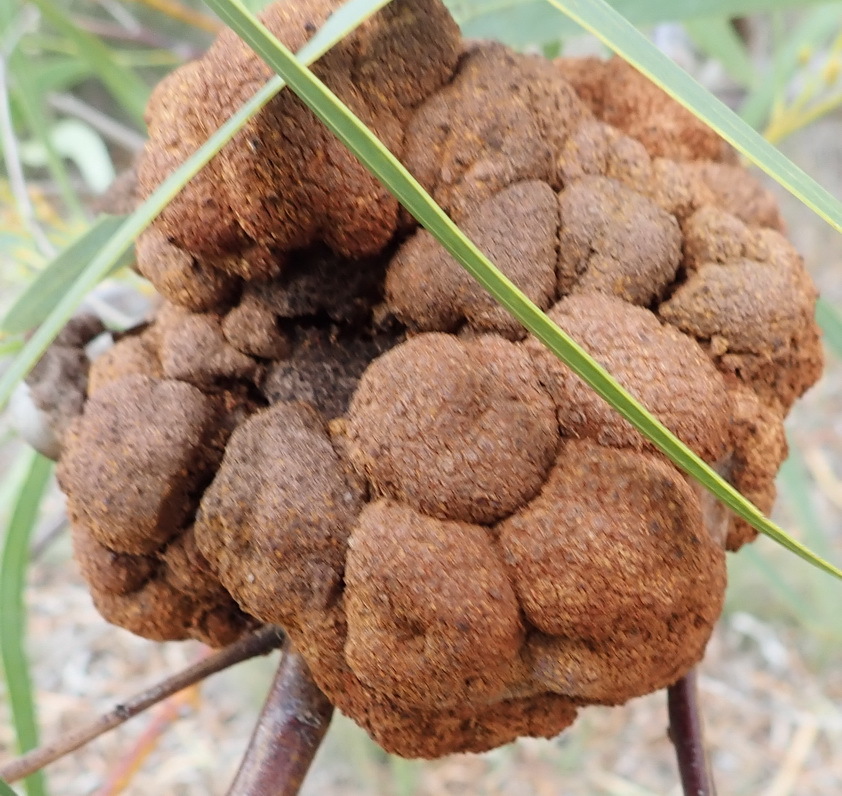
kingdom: Fungi
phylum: Basidiomycota
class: Pucciniomycetes
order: Pucciniales
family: Uromycladiaceae
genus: Uromycladium
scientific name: Uromycladium morrisii
